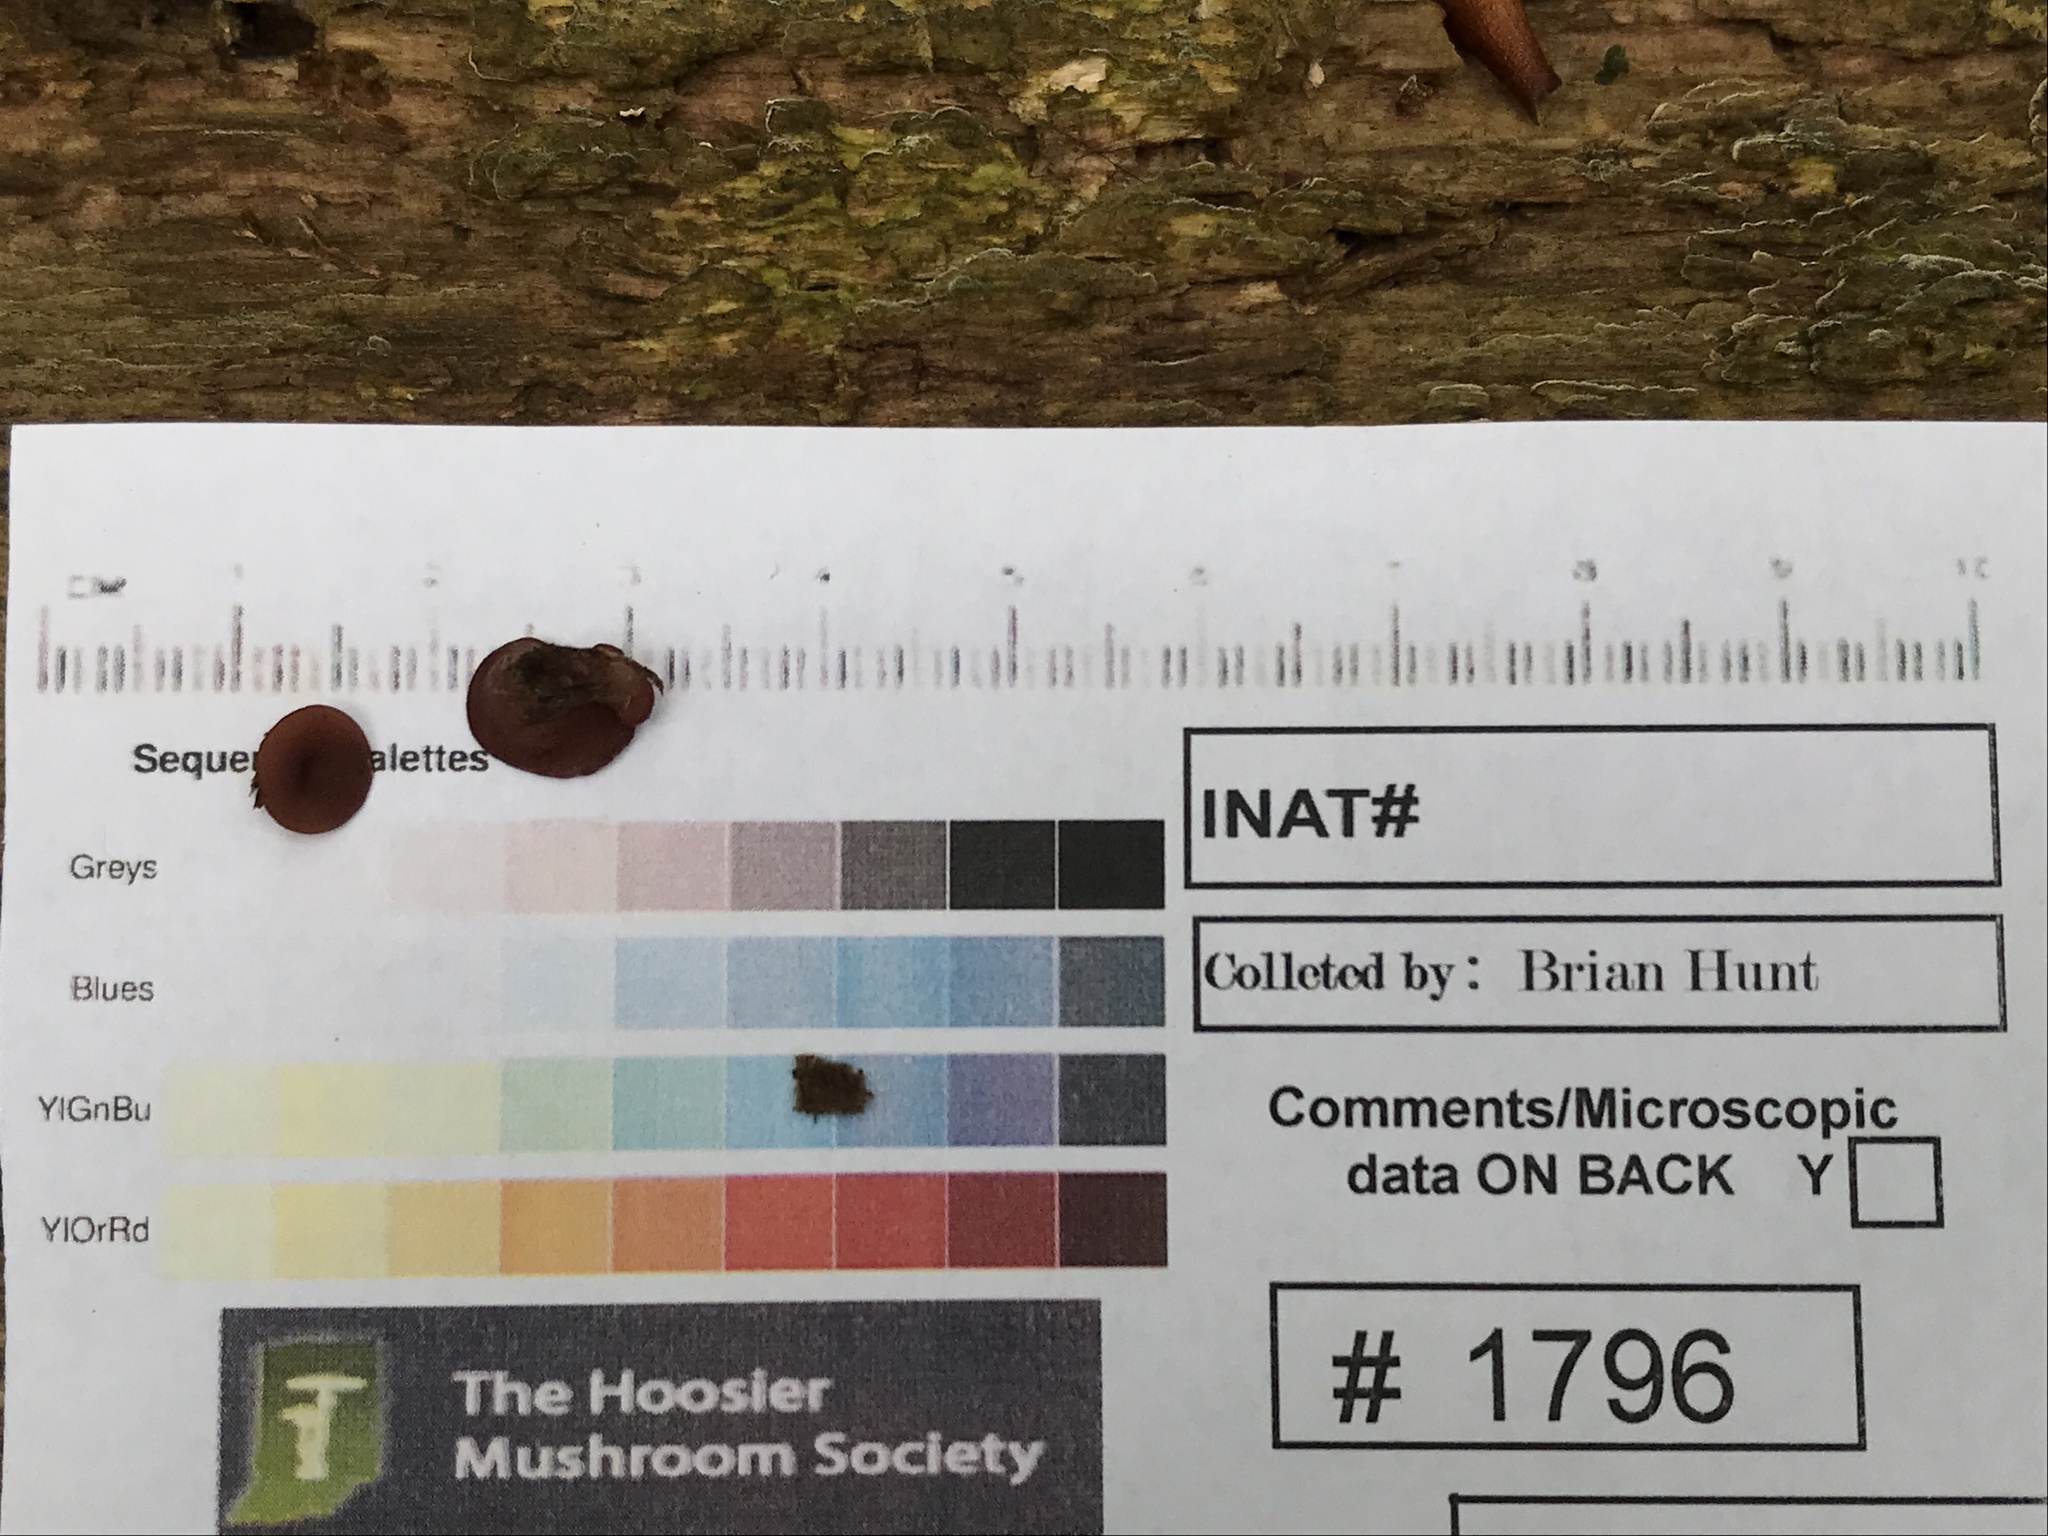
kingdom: Fungi
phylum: Ascomycota
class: Leotiomycetes
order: Helotiales
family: Gelatinodiscaceae
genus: Ascocoryne
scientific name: Ascocoryne sarcoides
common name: Purple jellydisc
